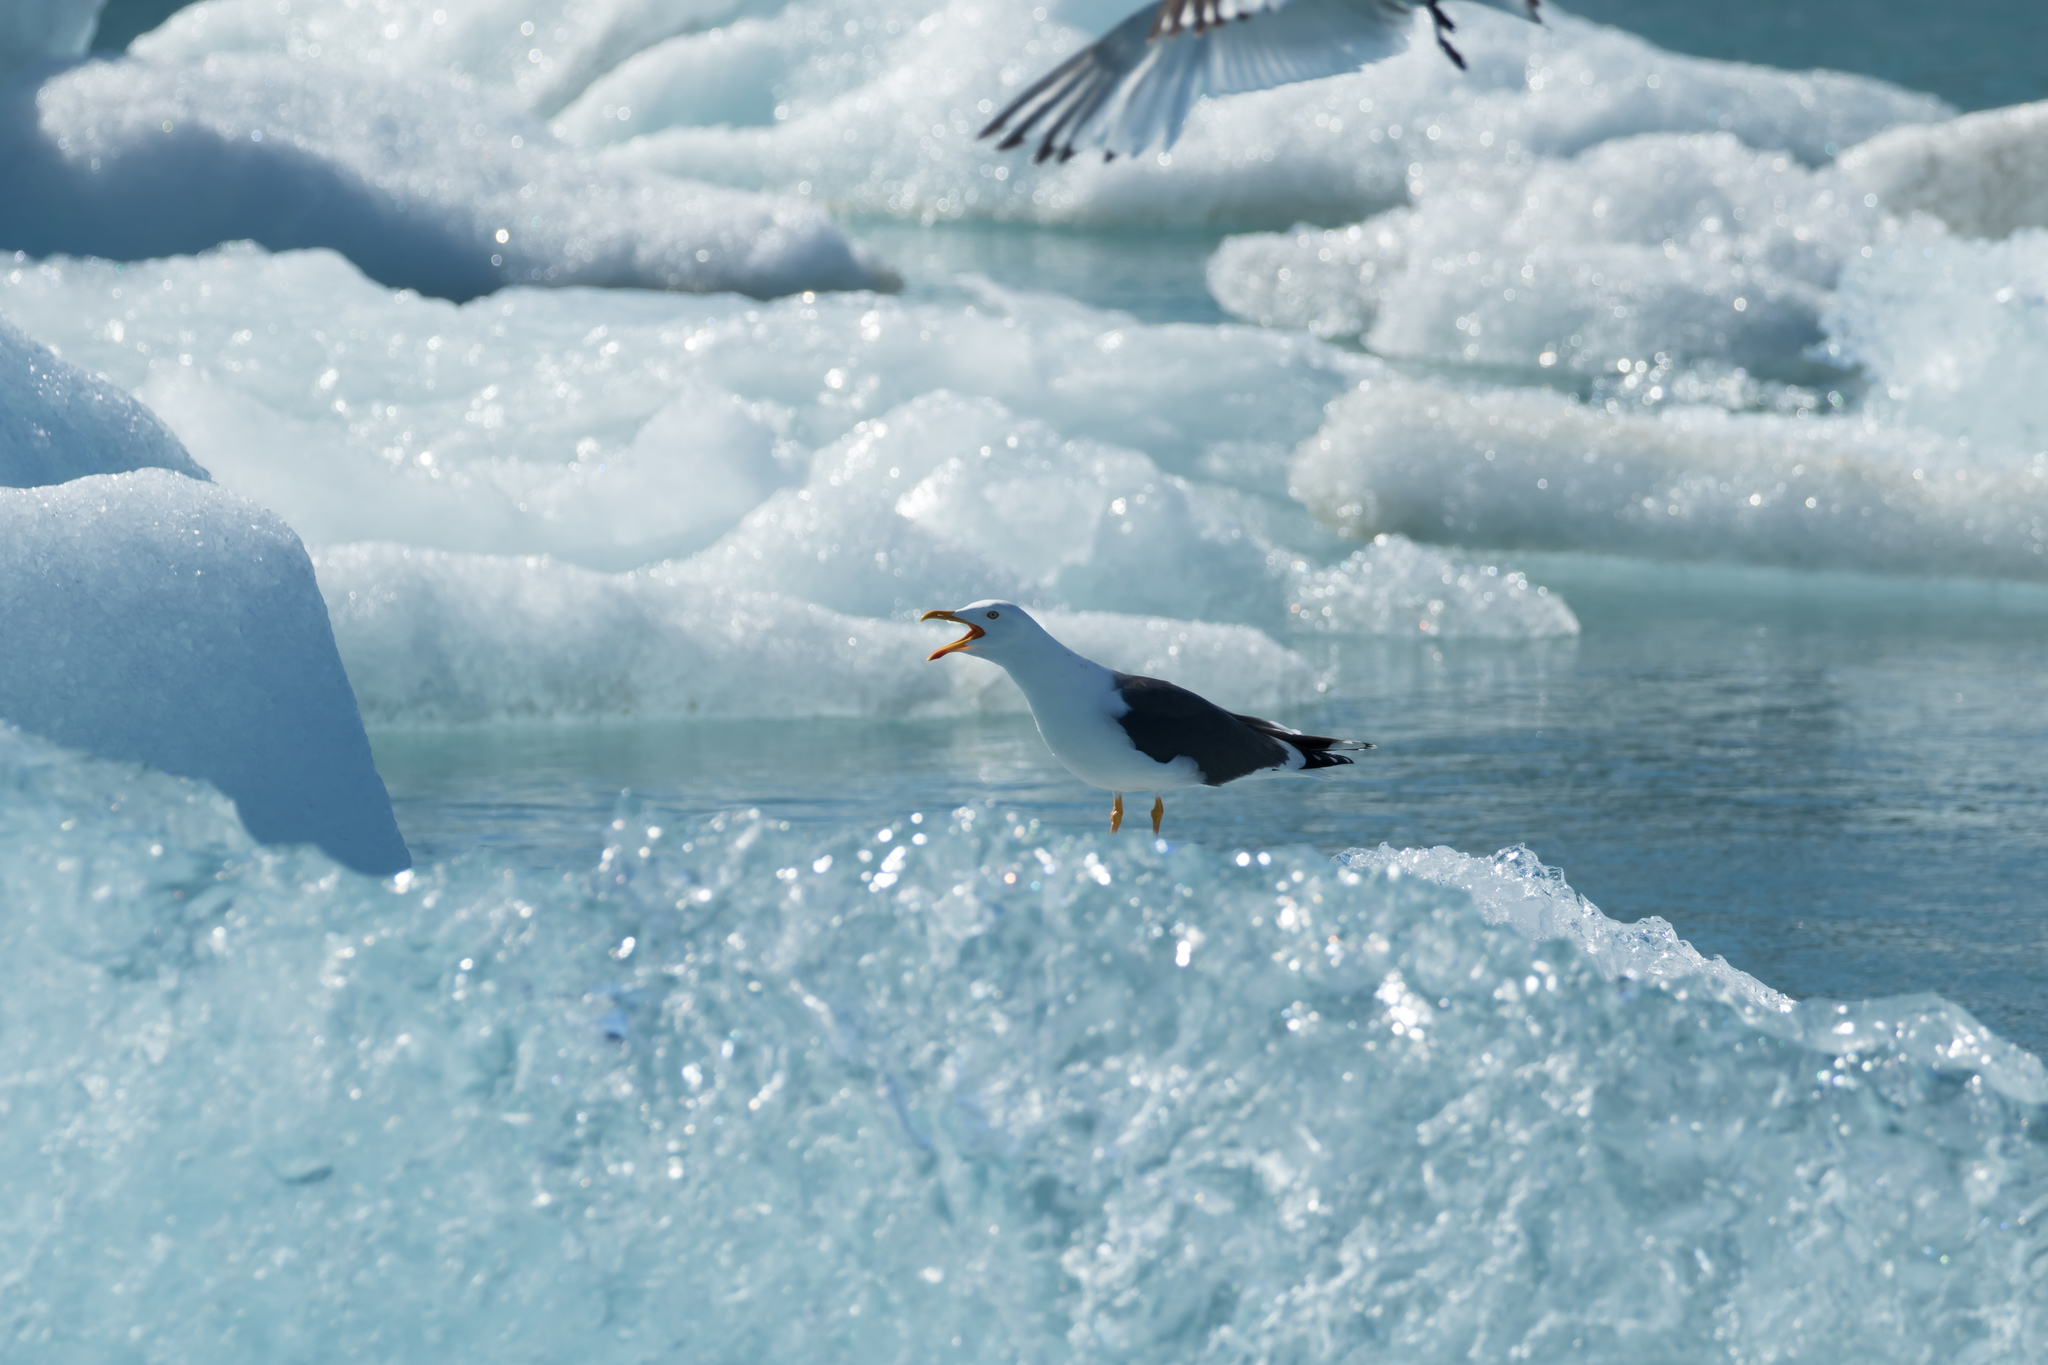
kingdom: Animalia
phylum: Chordata
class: Aves
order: Charadriiformes
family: Laridae
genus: Larus
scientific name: Larus fuscus
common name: Lesser black-backed gull
